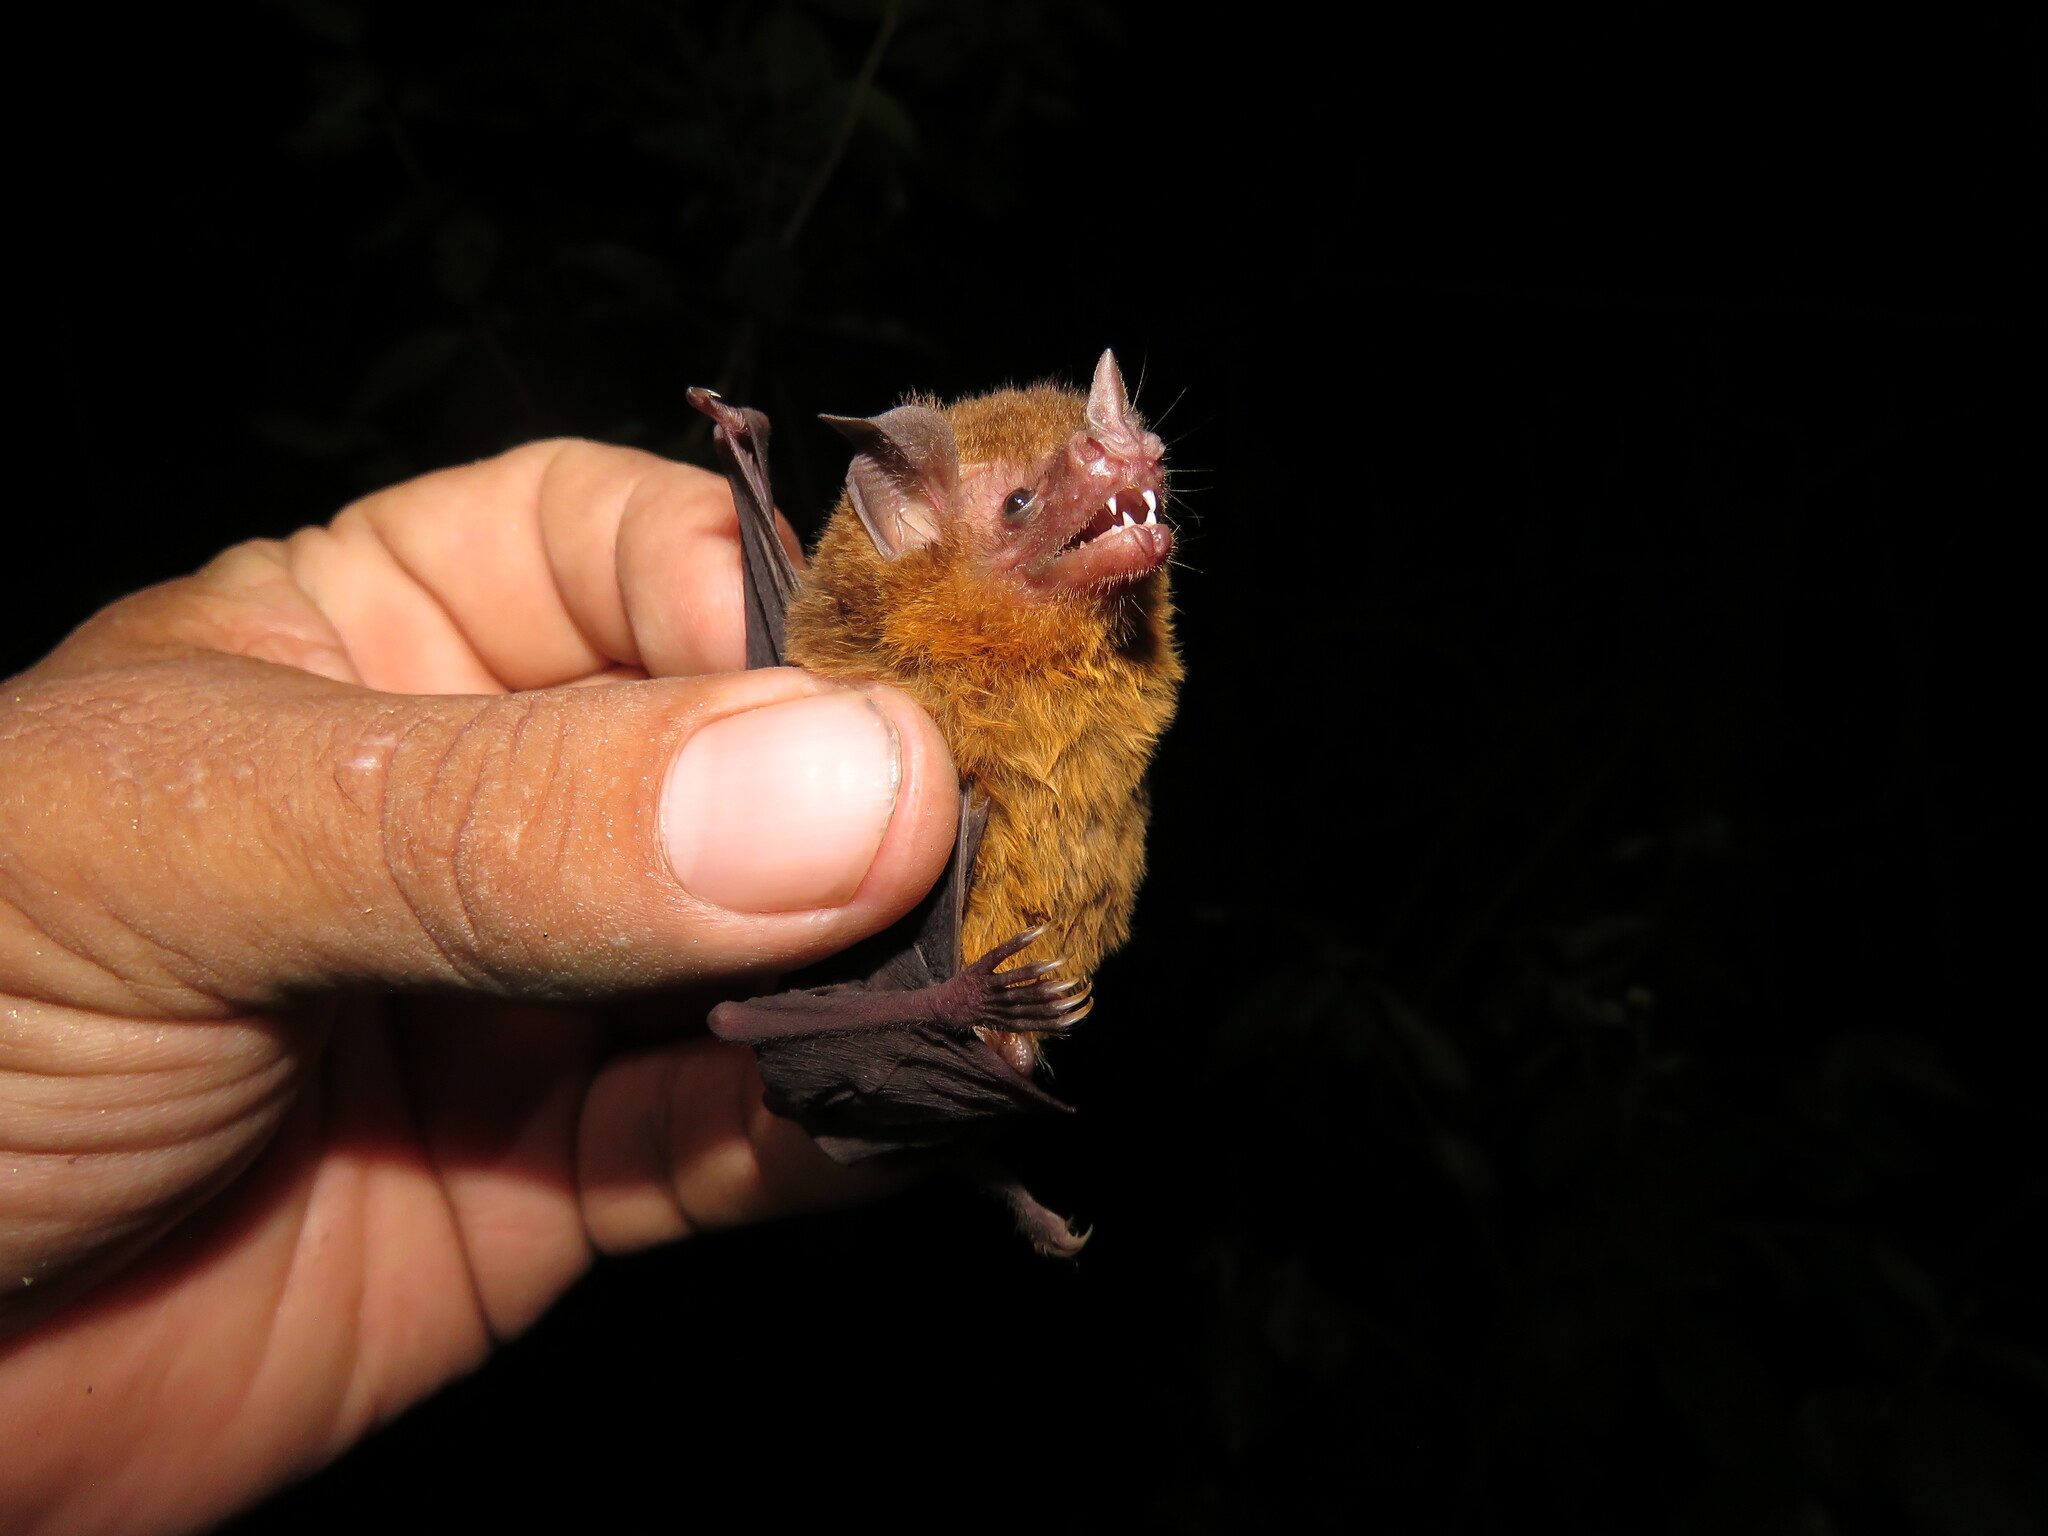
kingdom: Animalia
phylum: Chordata
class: Mammalia
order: Chiroptera
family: Phyllostomidae
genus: Lampronycteris
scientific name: Lampronycteris brachyotis
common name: Orange-throated bat
